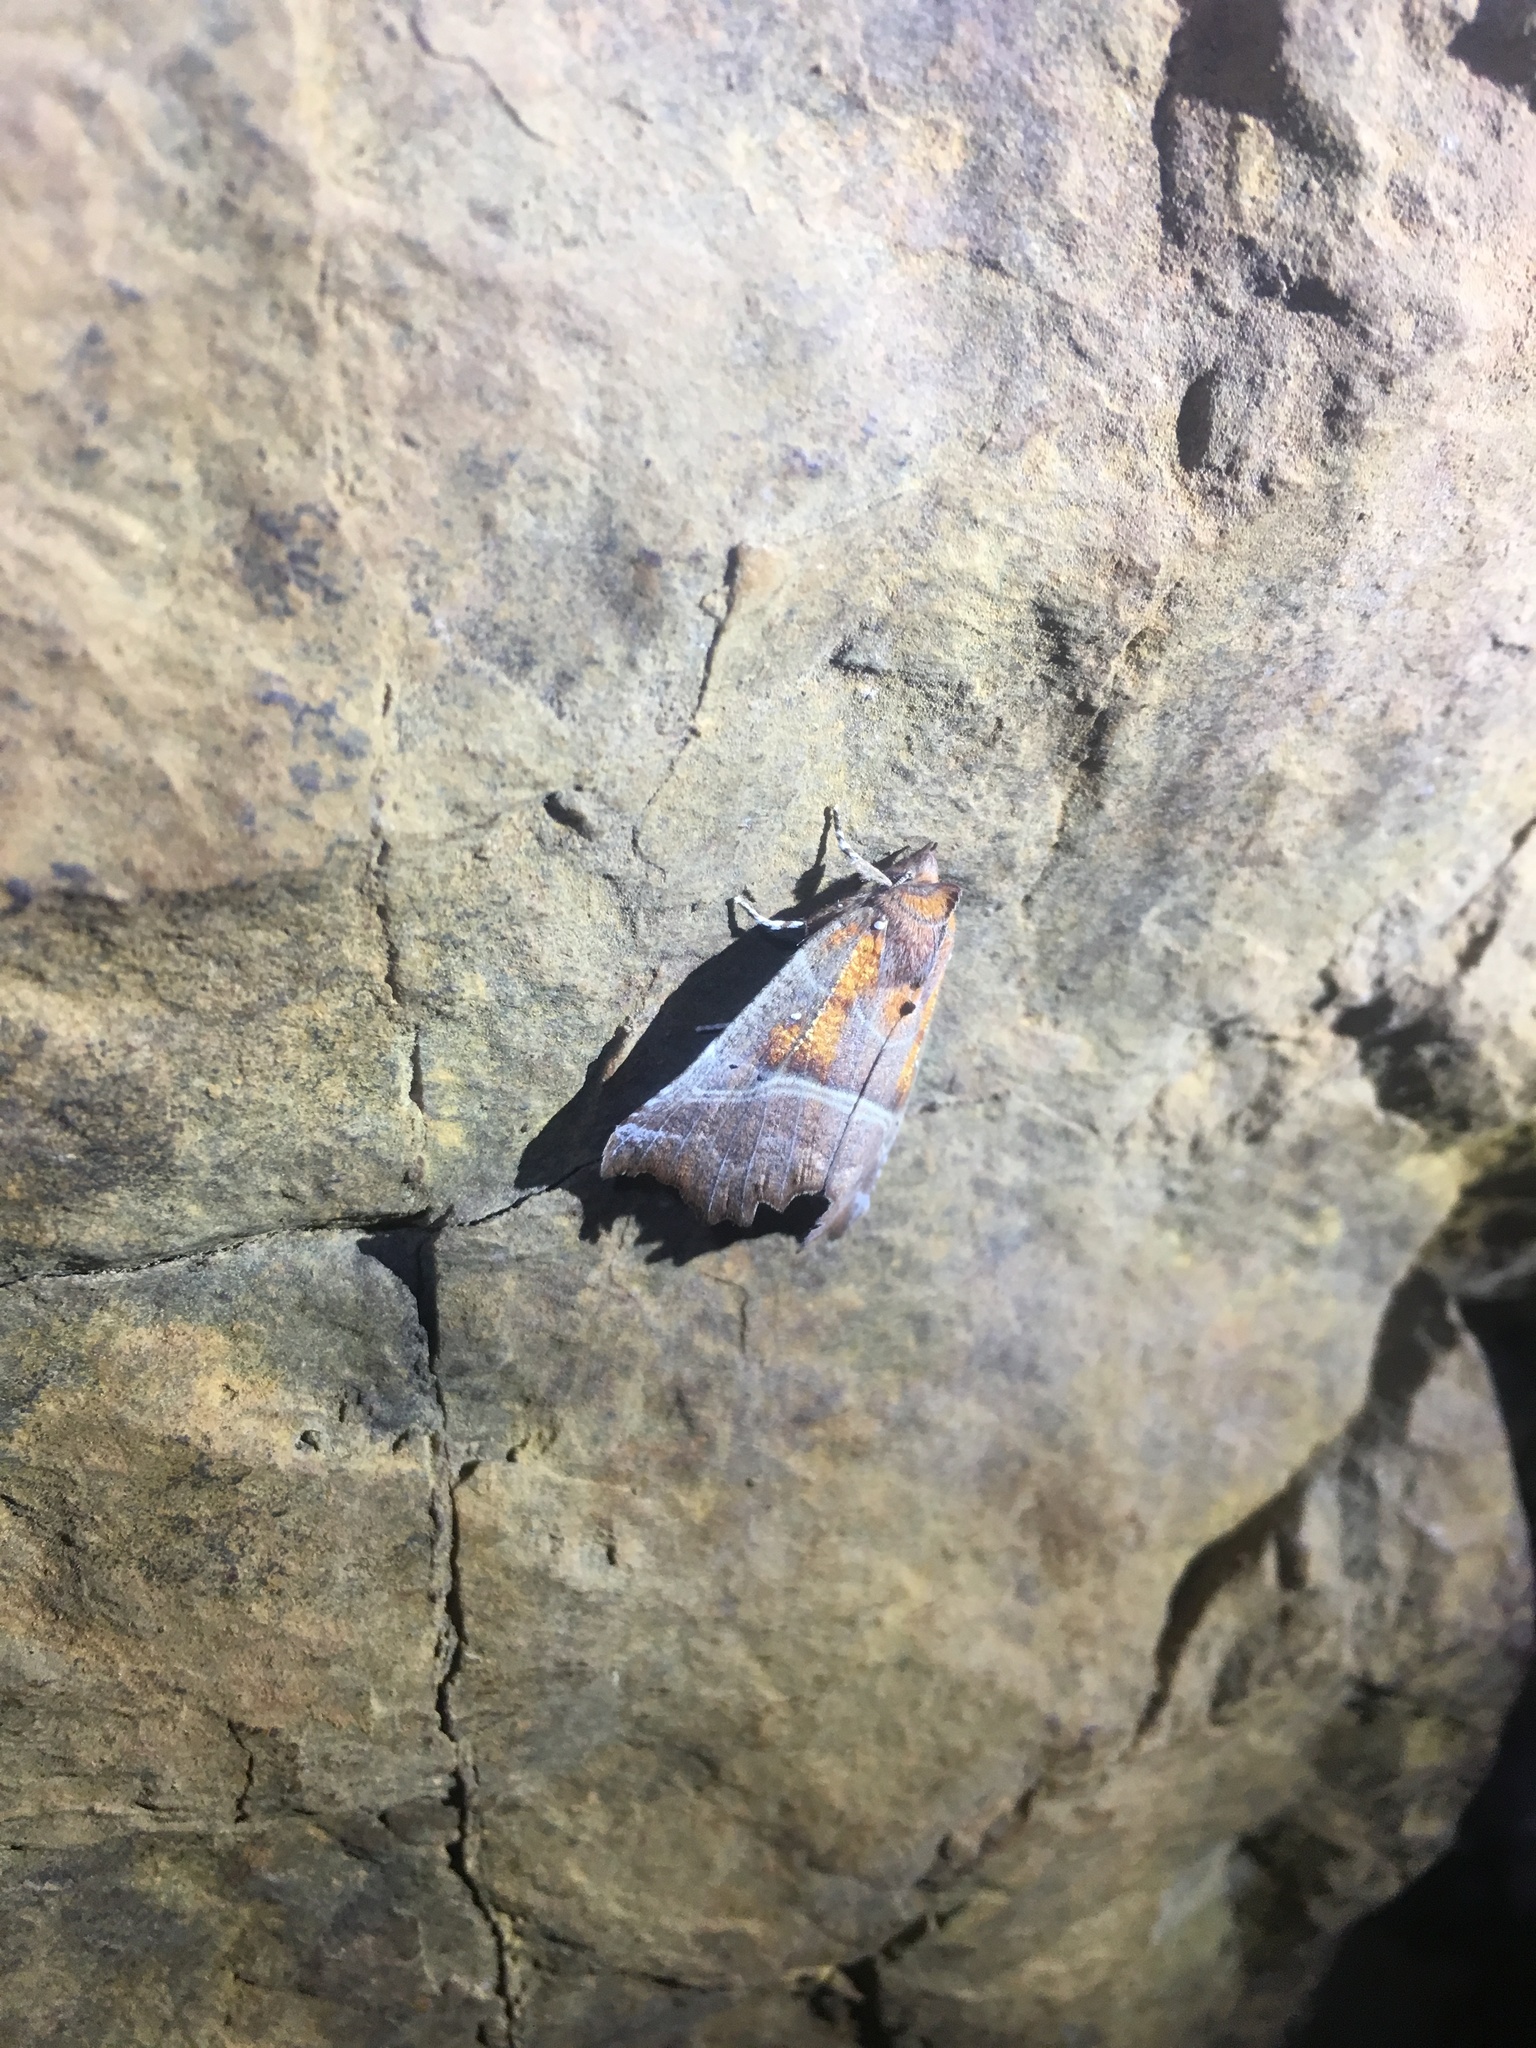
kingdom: Animalia
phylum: Arthropoda
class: Insecta
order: Lepidoptera
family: Erebidae
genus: Scoliopteryx
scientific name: Scoliopteryx libatrix
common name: Herald
